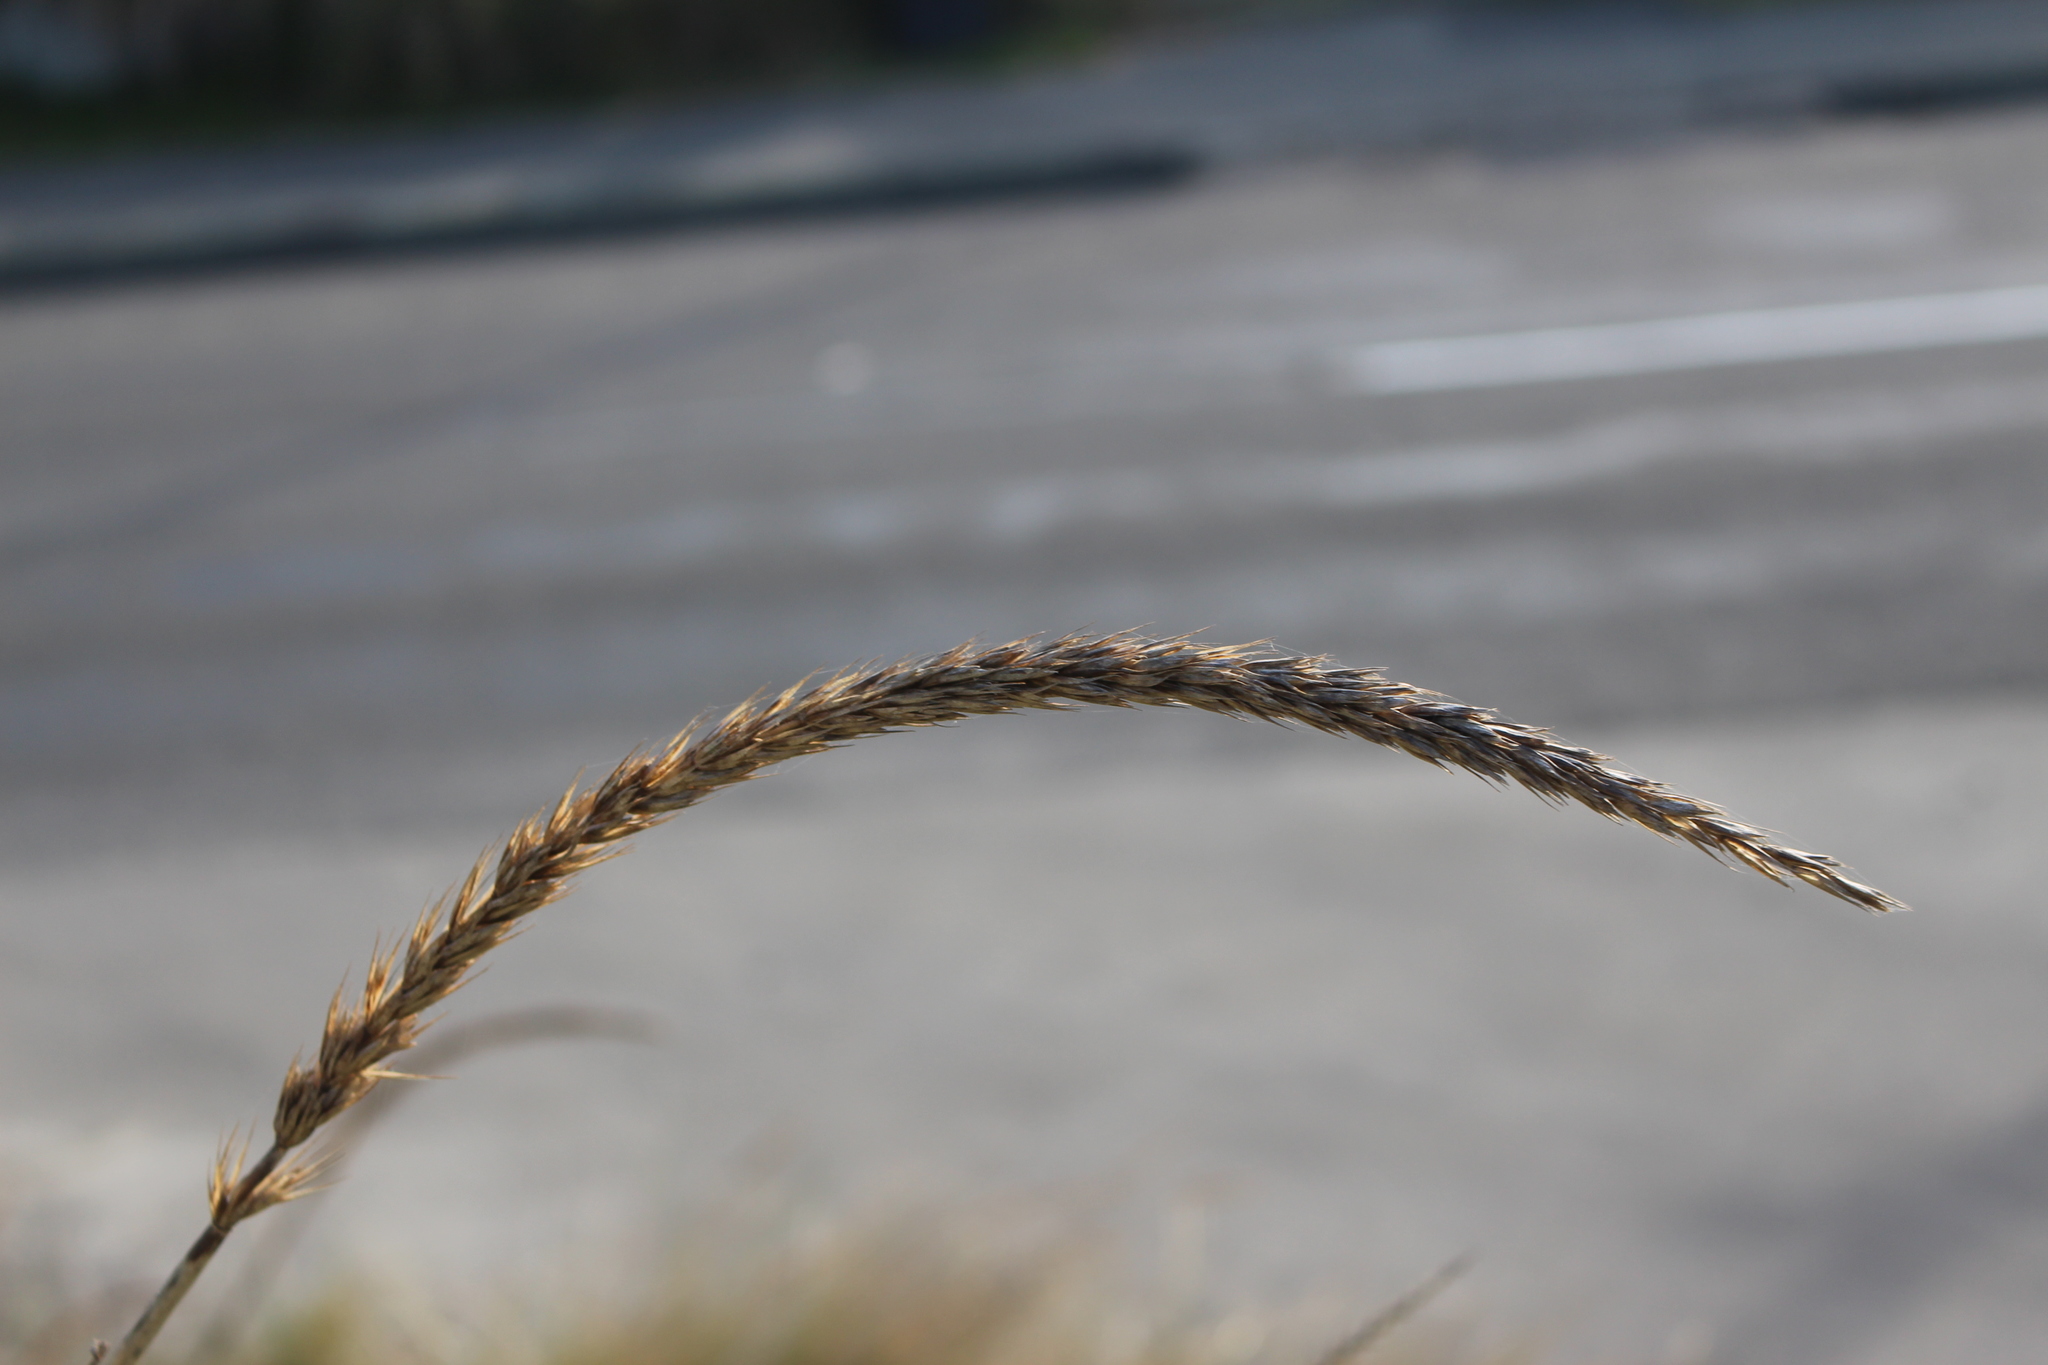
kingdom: Plantae
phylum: Tracheophyta
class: Liliopsida
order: Poales
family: Poaceae
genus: Leymus
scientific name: Leymus racemosus
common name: Mammoth wildrye
